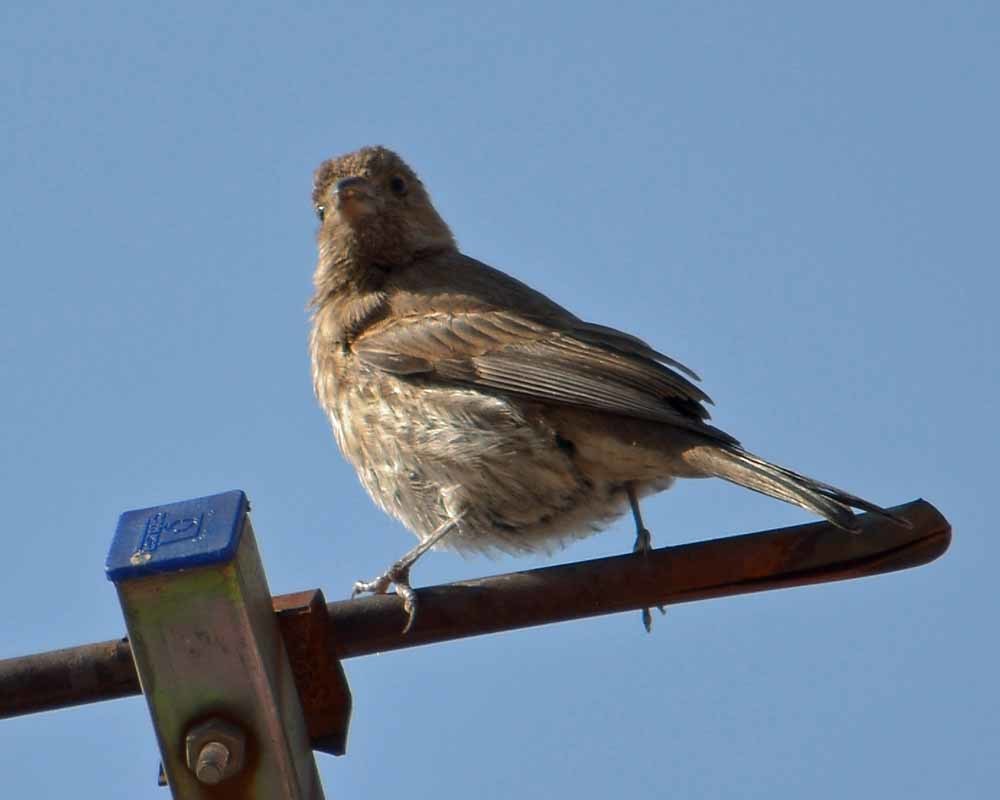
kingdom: Animalia
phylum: Chordata
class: Aves
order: Passeriformes
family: Fringillidae
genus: Haemorhous
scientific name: Haemorhous mexicanus
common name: House finch
